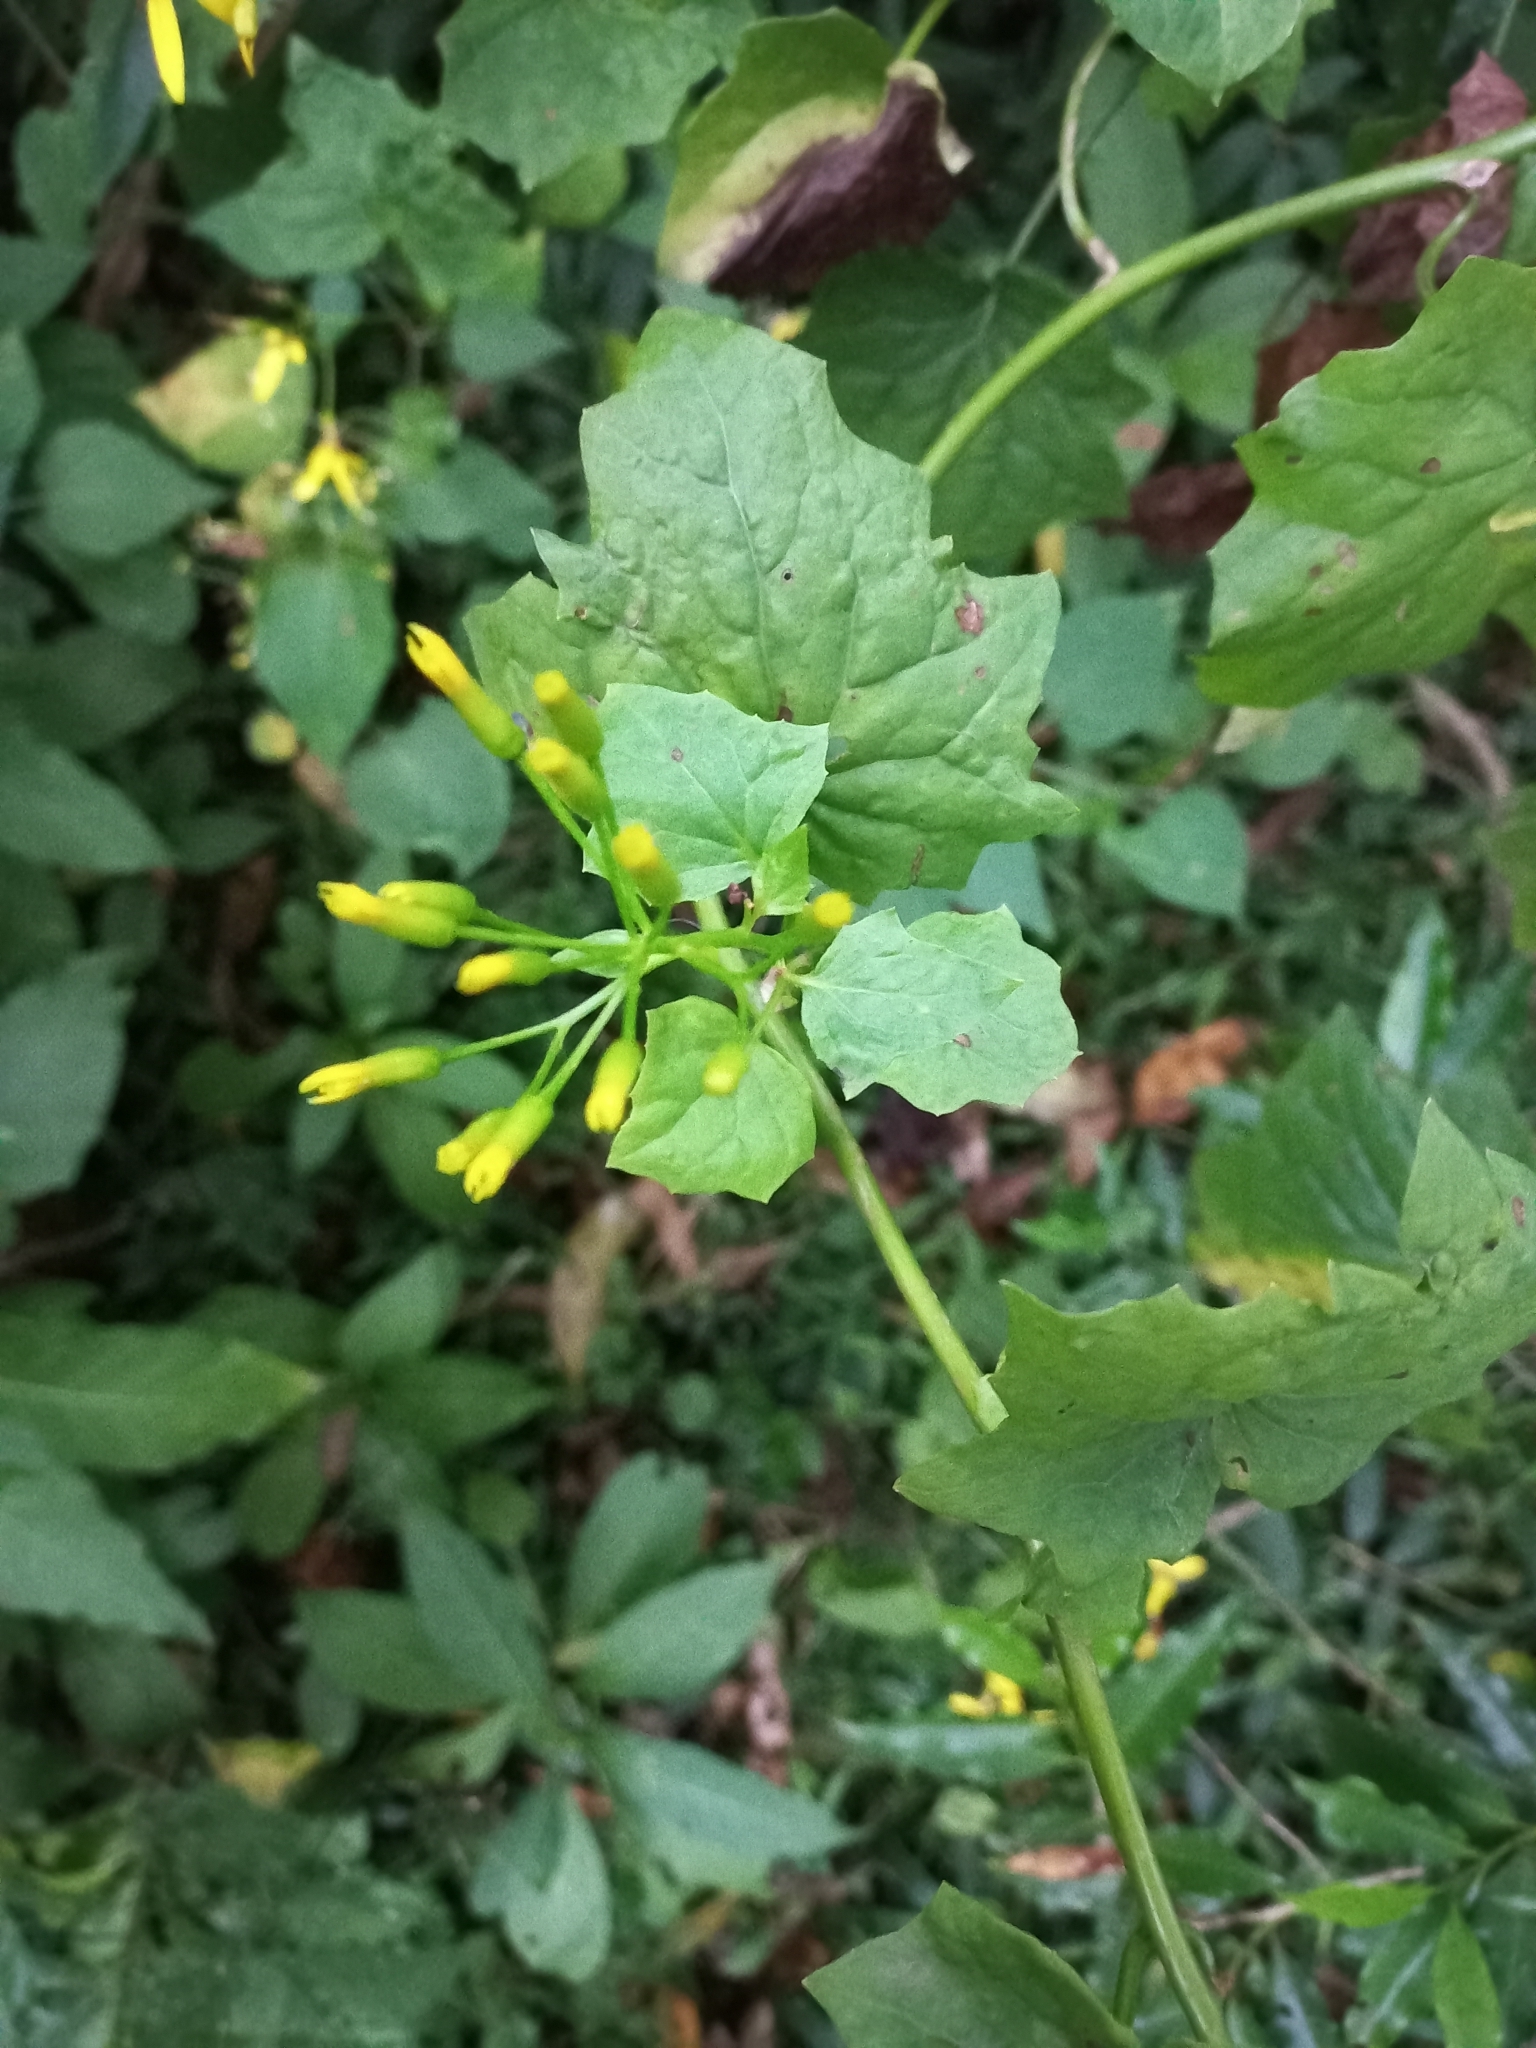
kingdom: Plantae
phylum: Tracheophyta
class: Magnoliopsida
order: Asterales
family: Asteraceae
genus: Senecio
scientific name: Senecio tamoides
